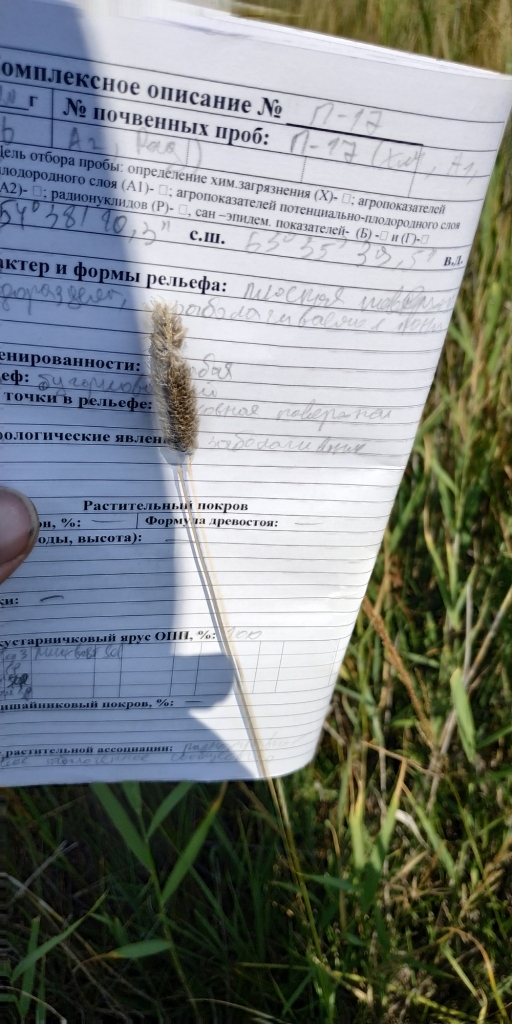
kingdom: Plantae
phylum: Tracheophyta
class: Liliopsida
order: Poales
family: Poaceae
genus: Alopecurus
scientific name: Alopecurus pratensis
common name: Meadow foxtail
